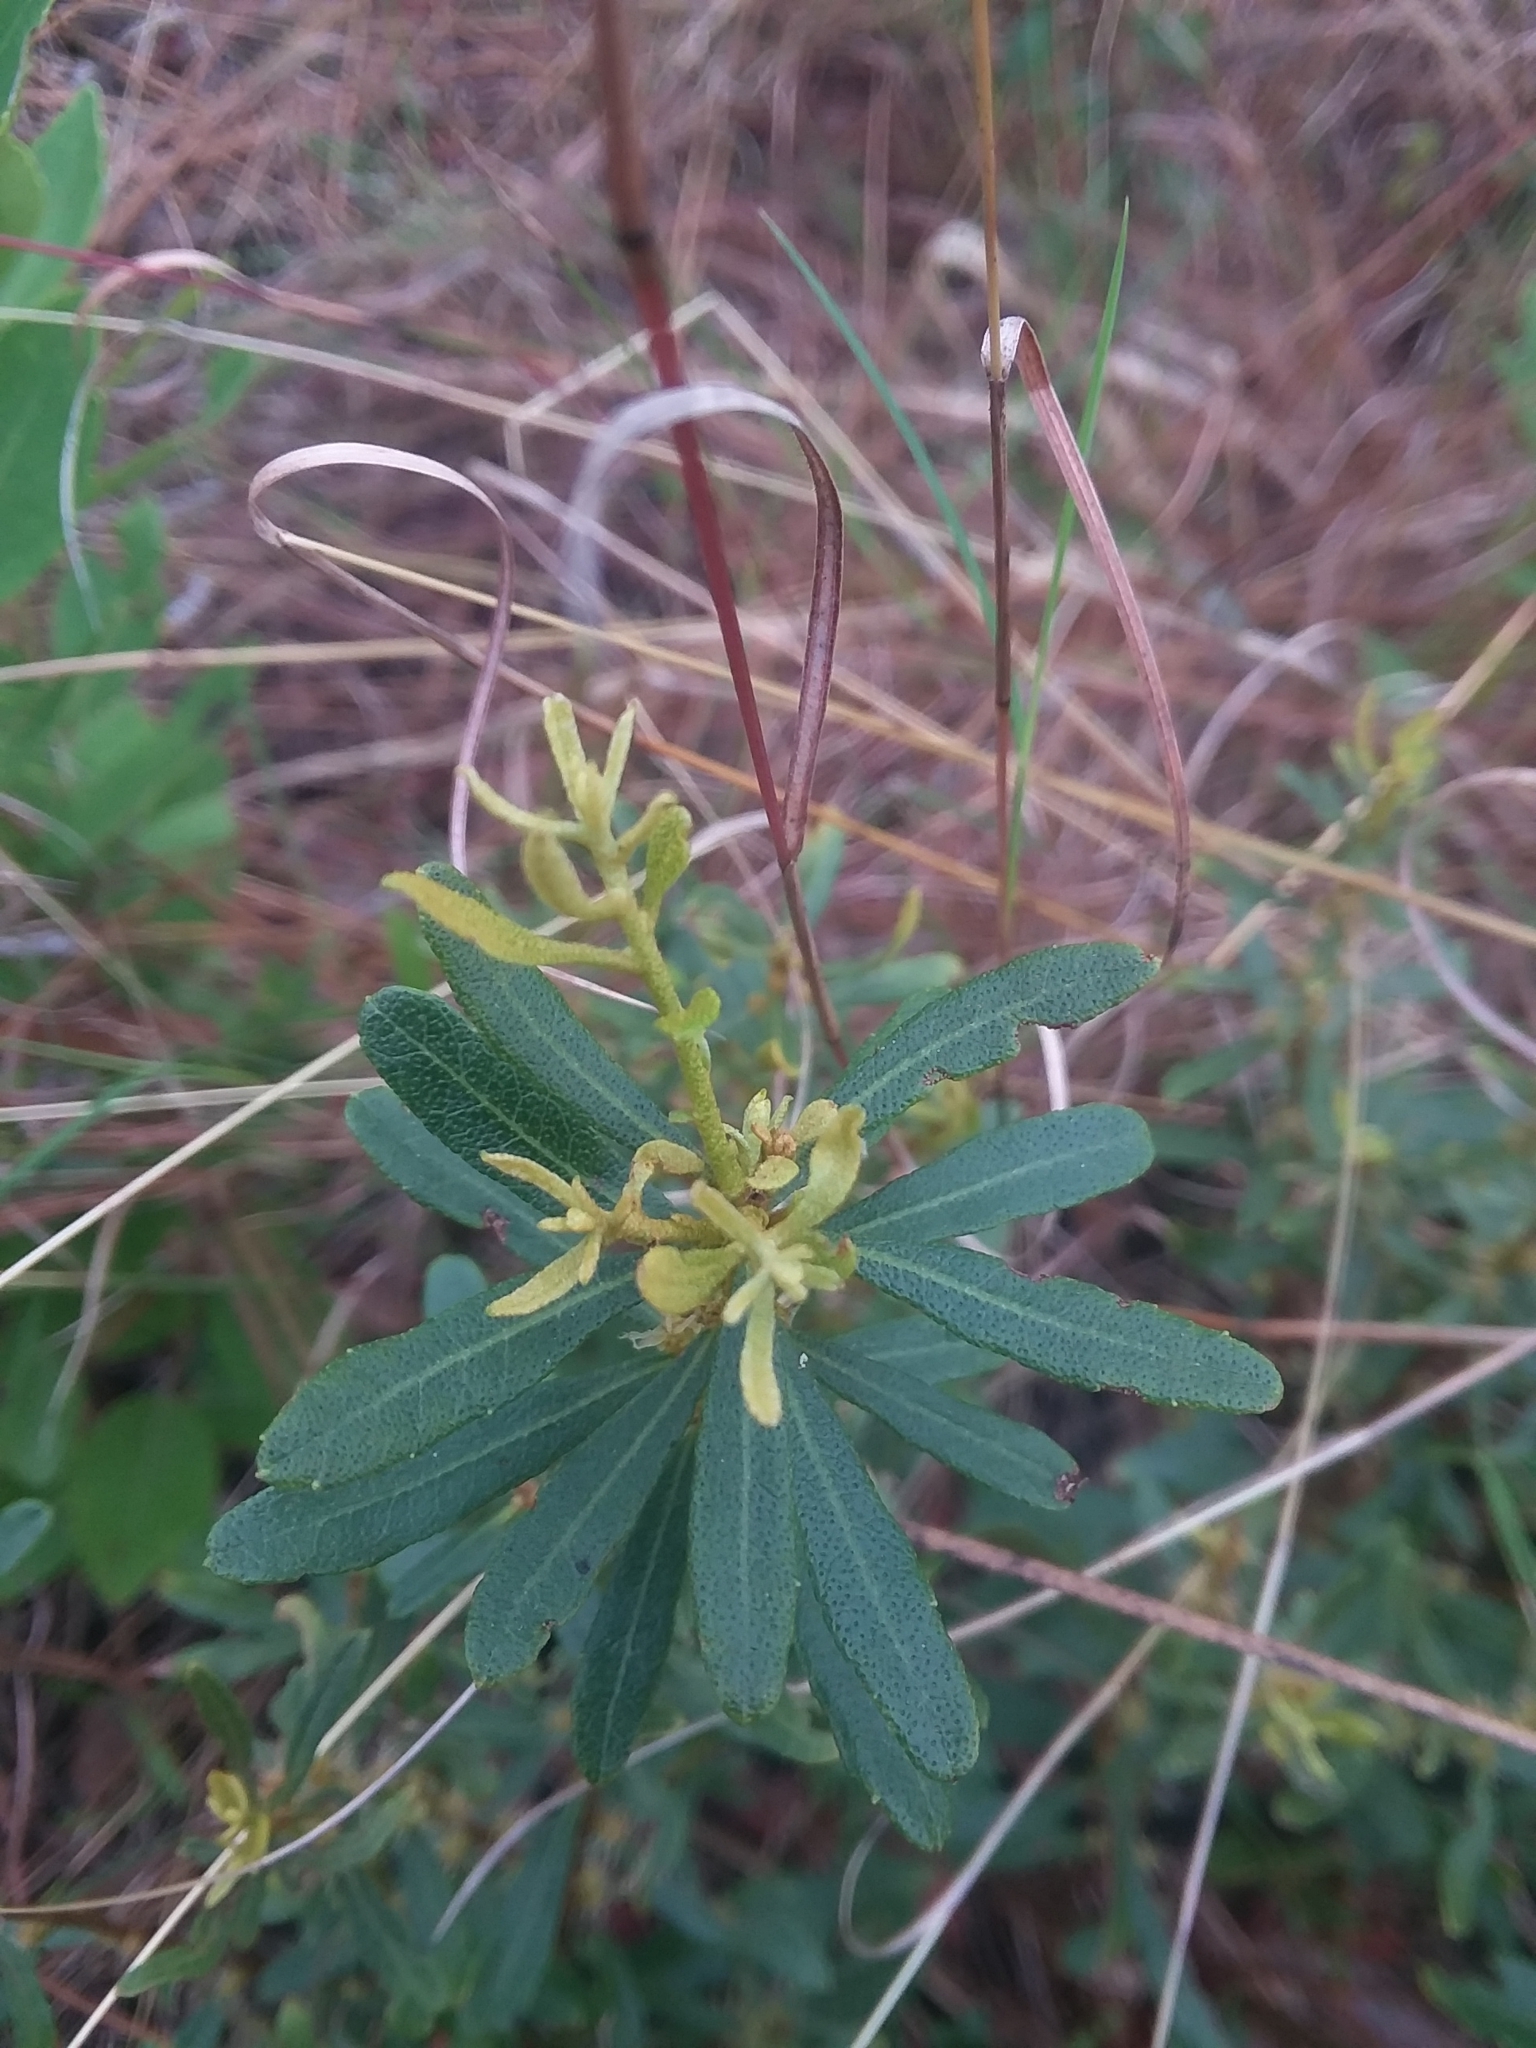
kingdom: Plantae
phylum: Tracheophyta
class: Magnoliopsida
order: Fagales
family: Myricaceae
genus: Morella
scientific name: Morella cerifera
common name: Wax myrtle
